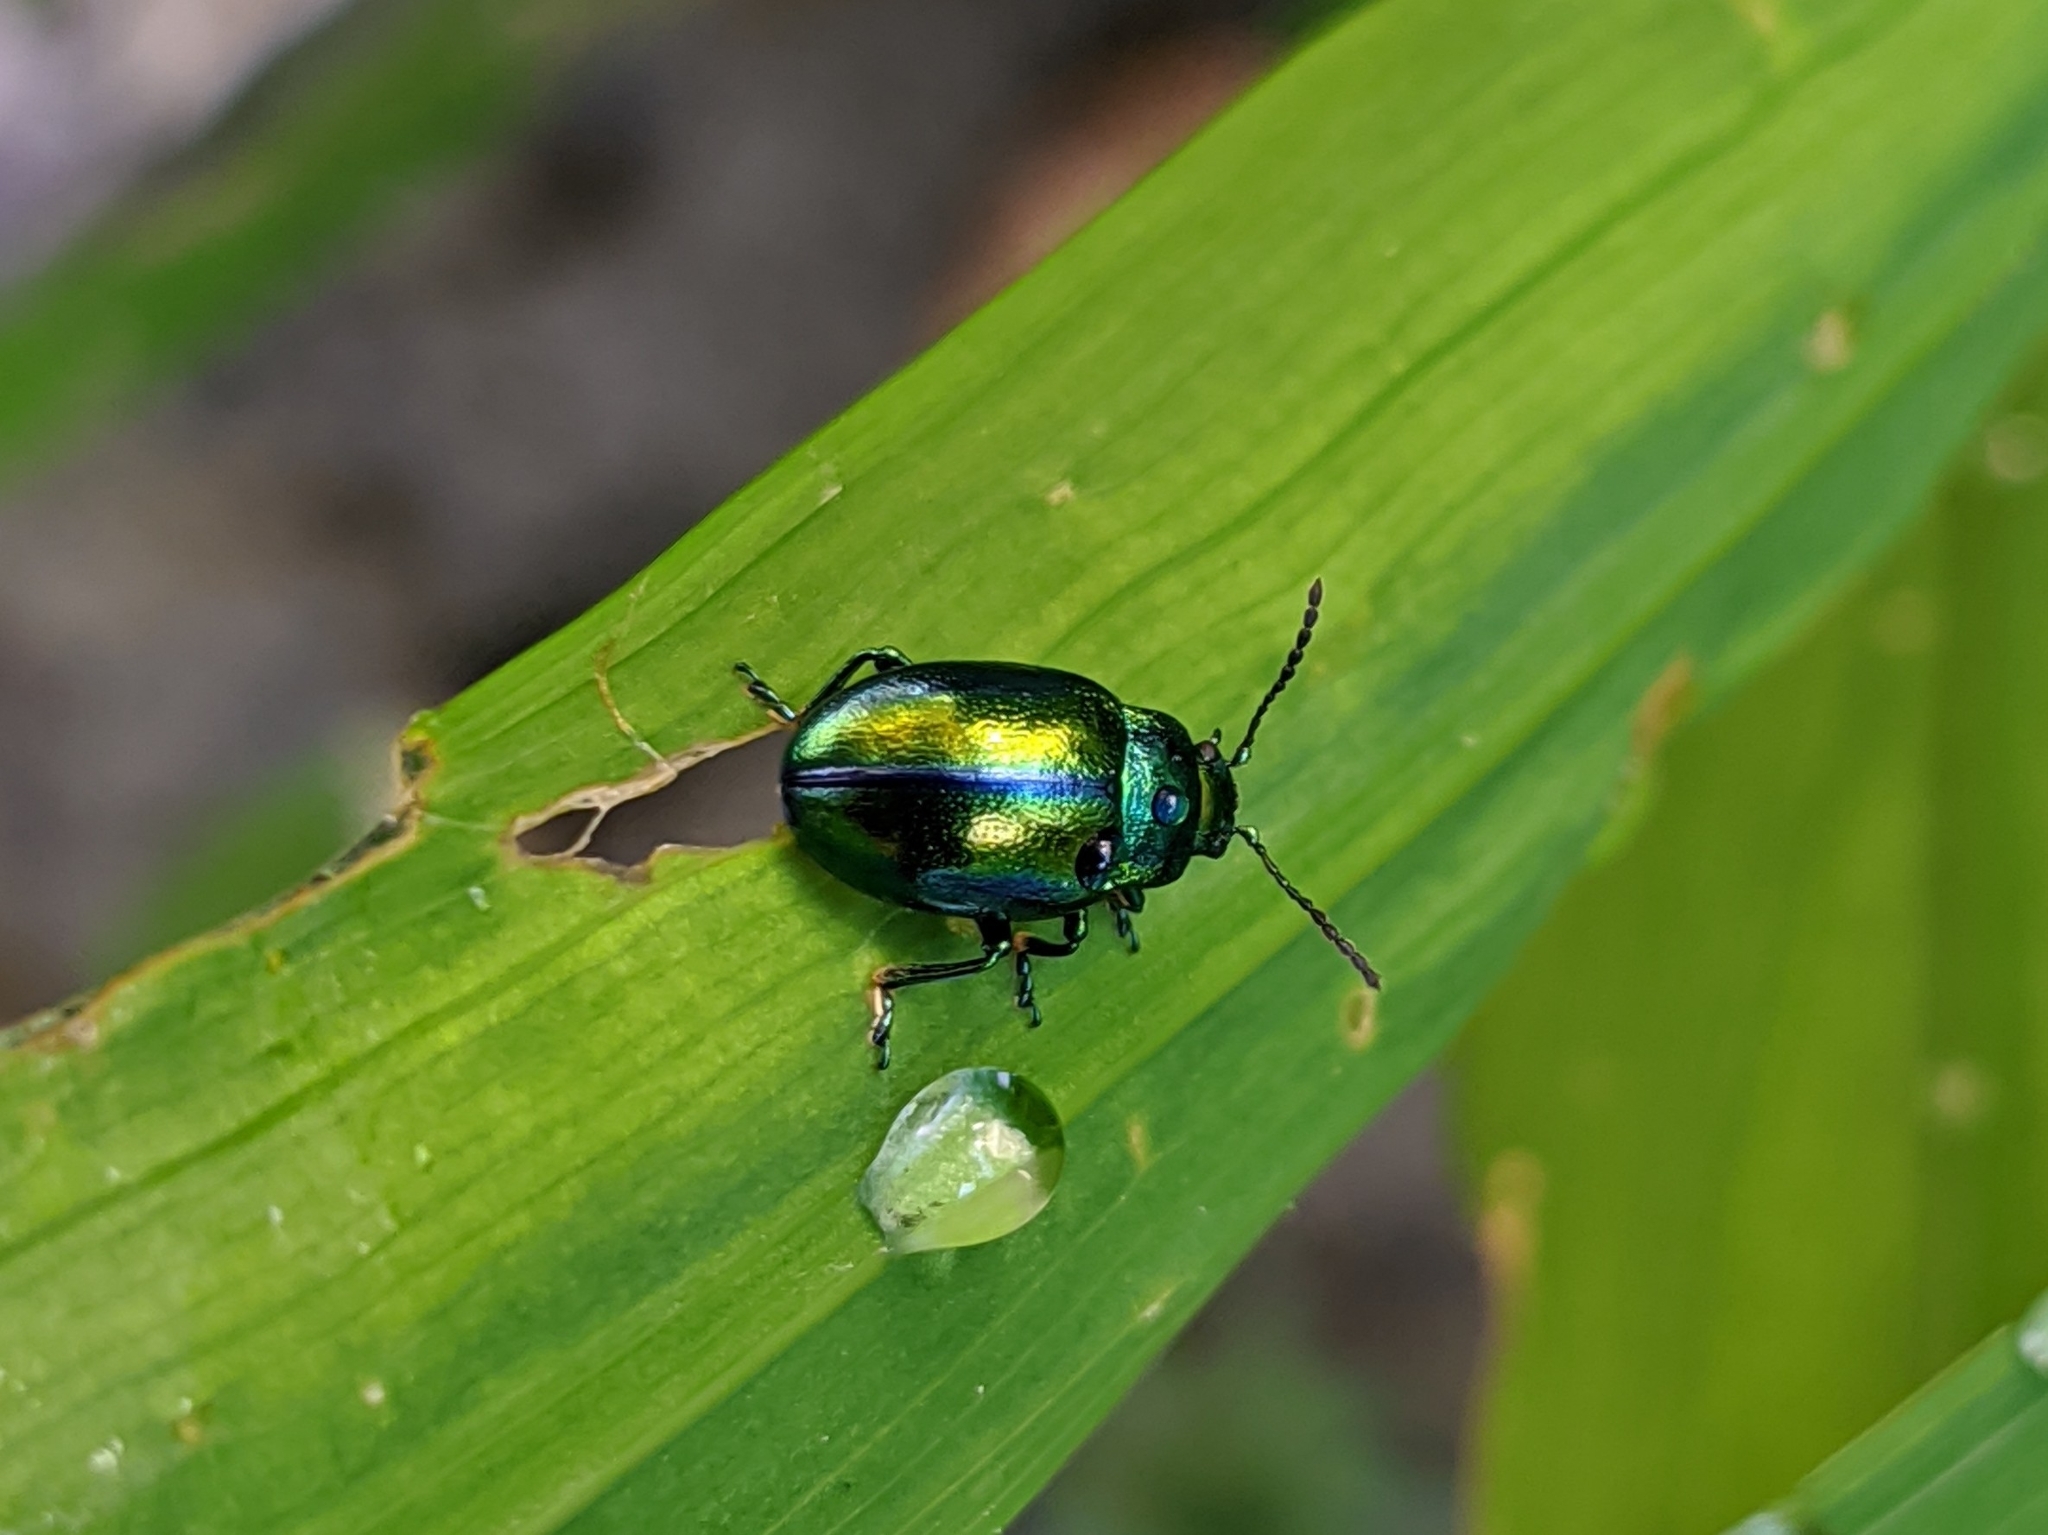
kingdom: Animalia
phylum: Arthropoda
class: Insecta
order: Coleoptera
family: Chrysomelidae
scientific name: Chrysomelidae
